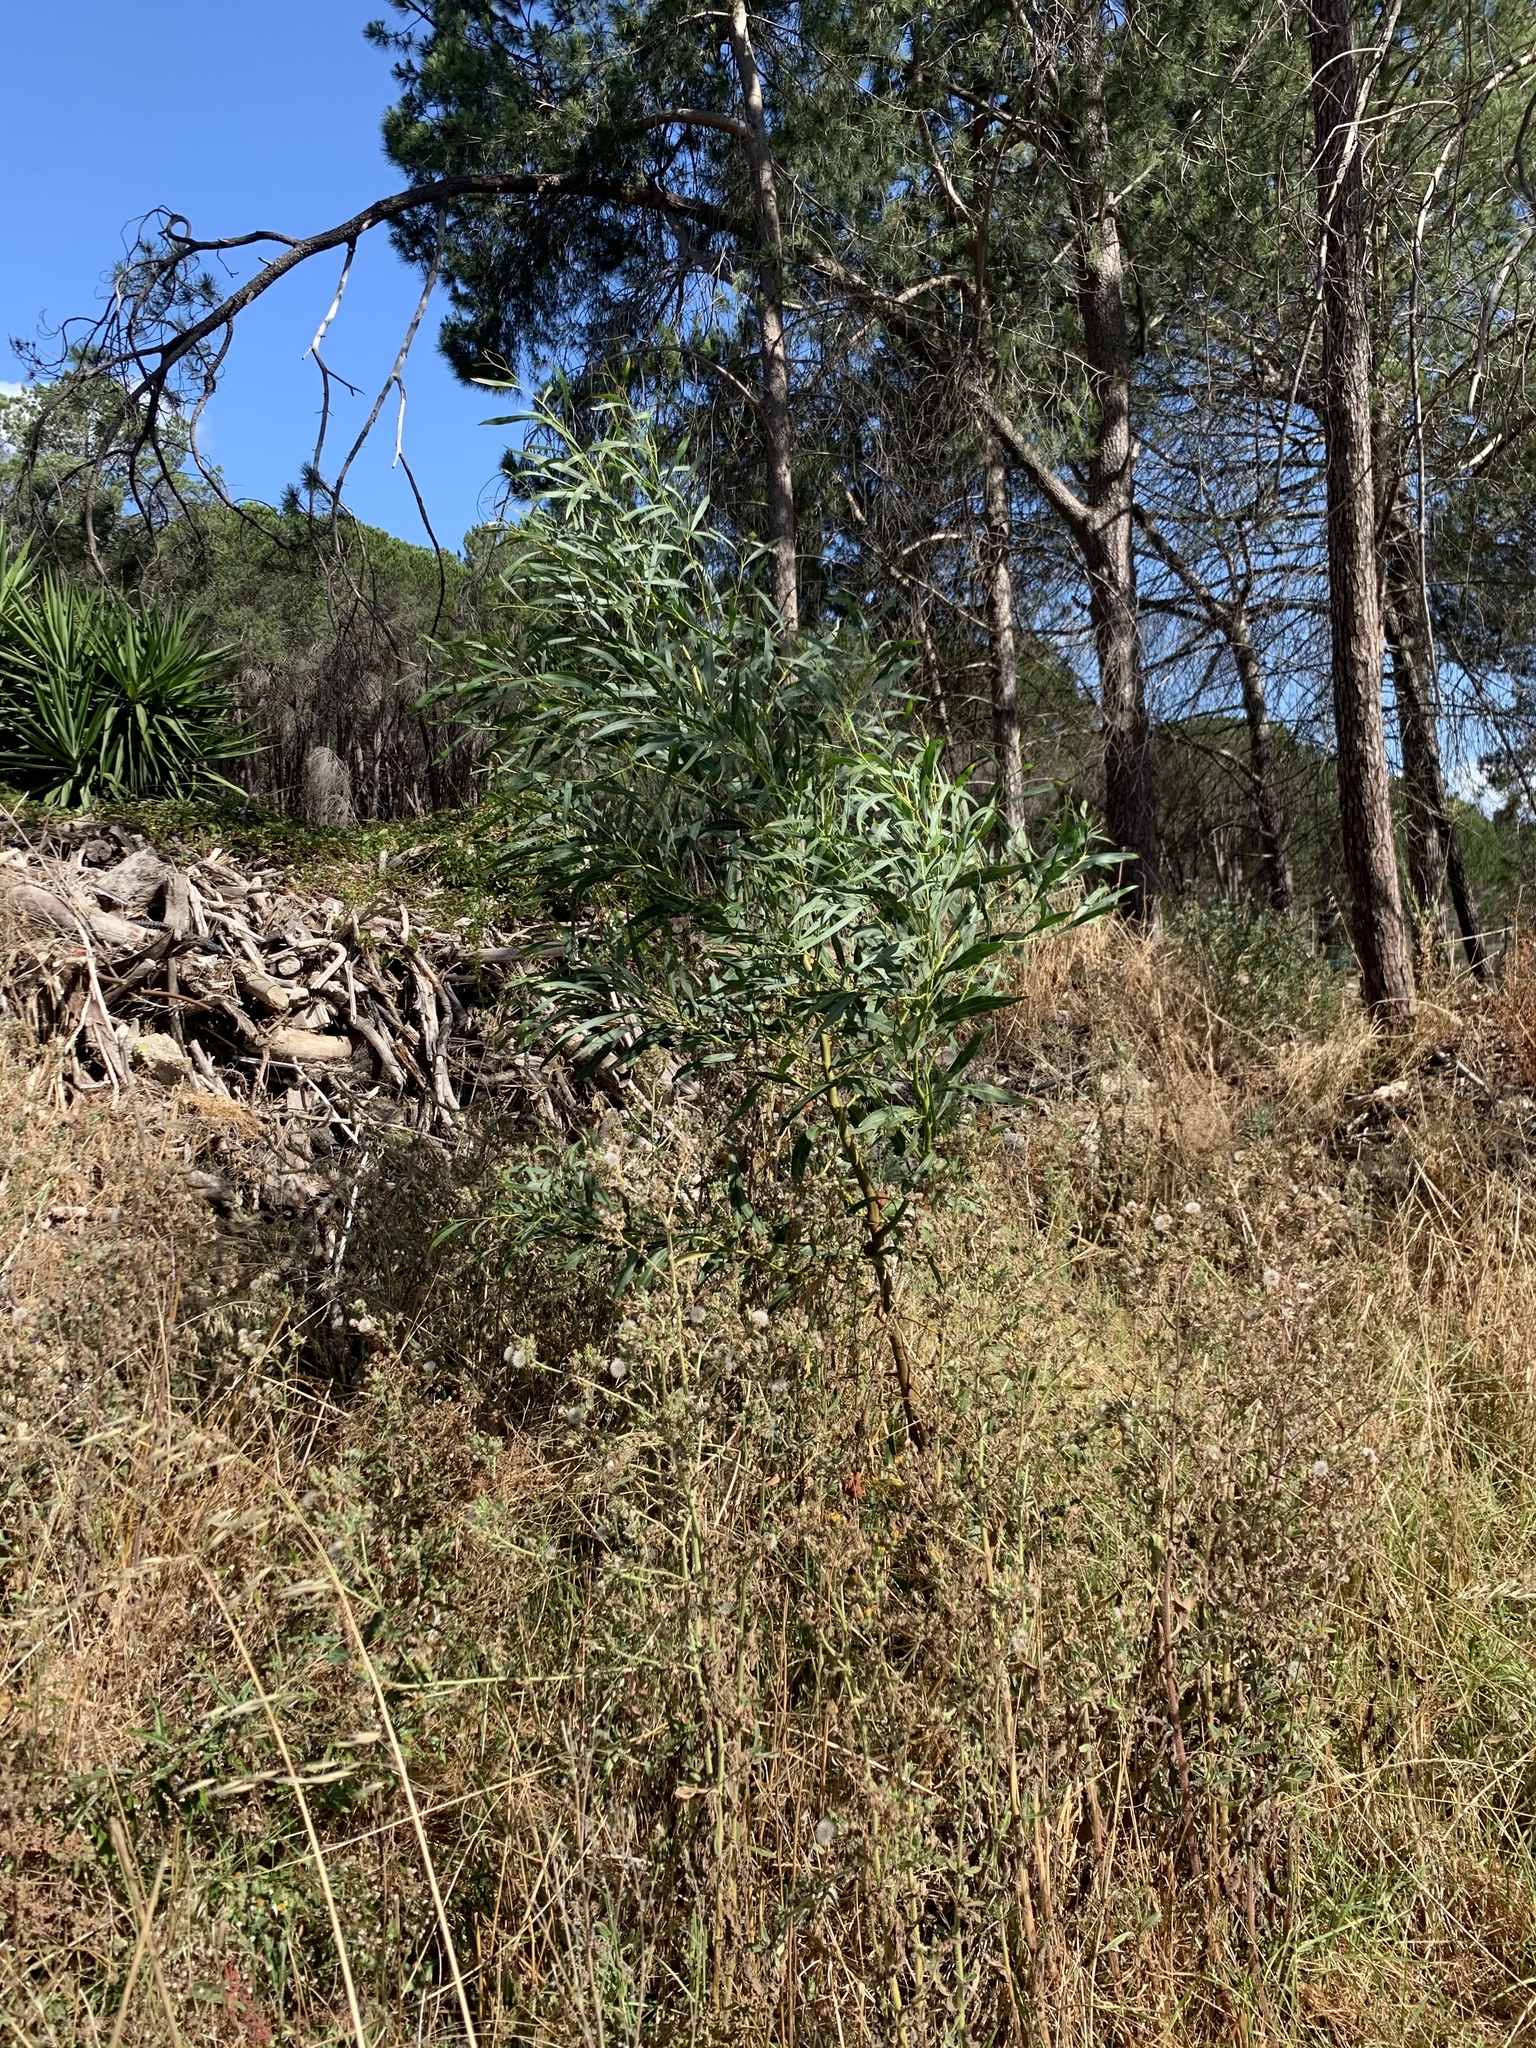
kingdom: Plantae
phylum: Tracheophyta
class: Magnoliopsida
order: Fabales
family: Fabaceae
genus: Acacia
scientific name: Acacia saligna
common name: Orange wattle
